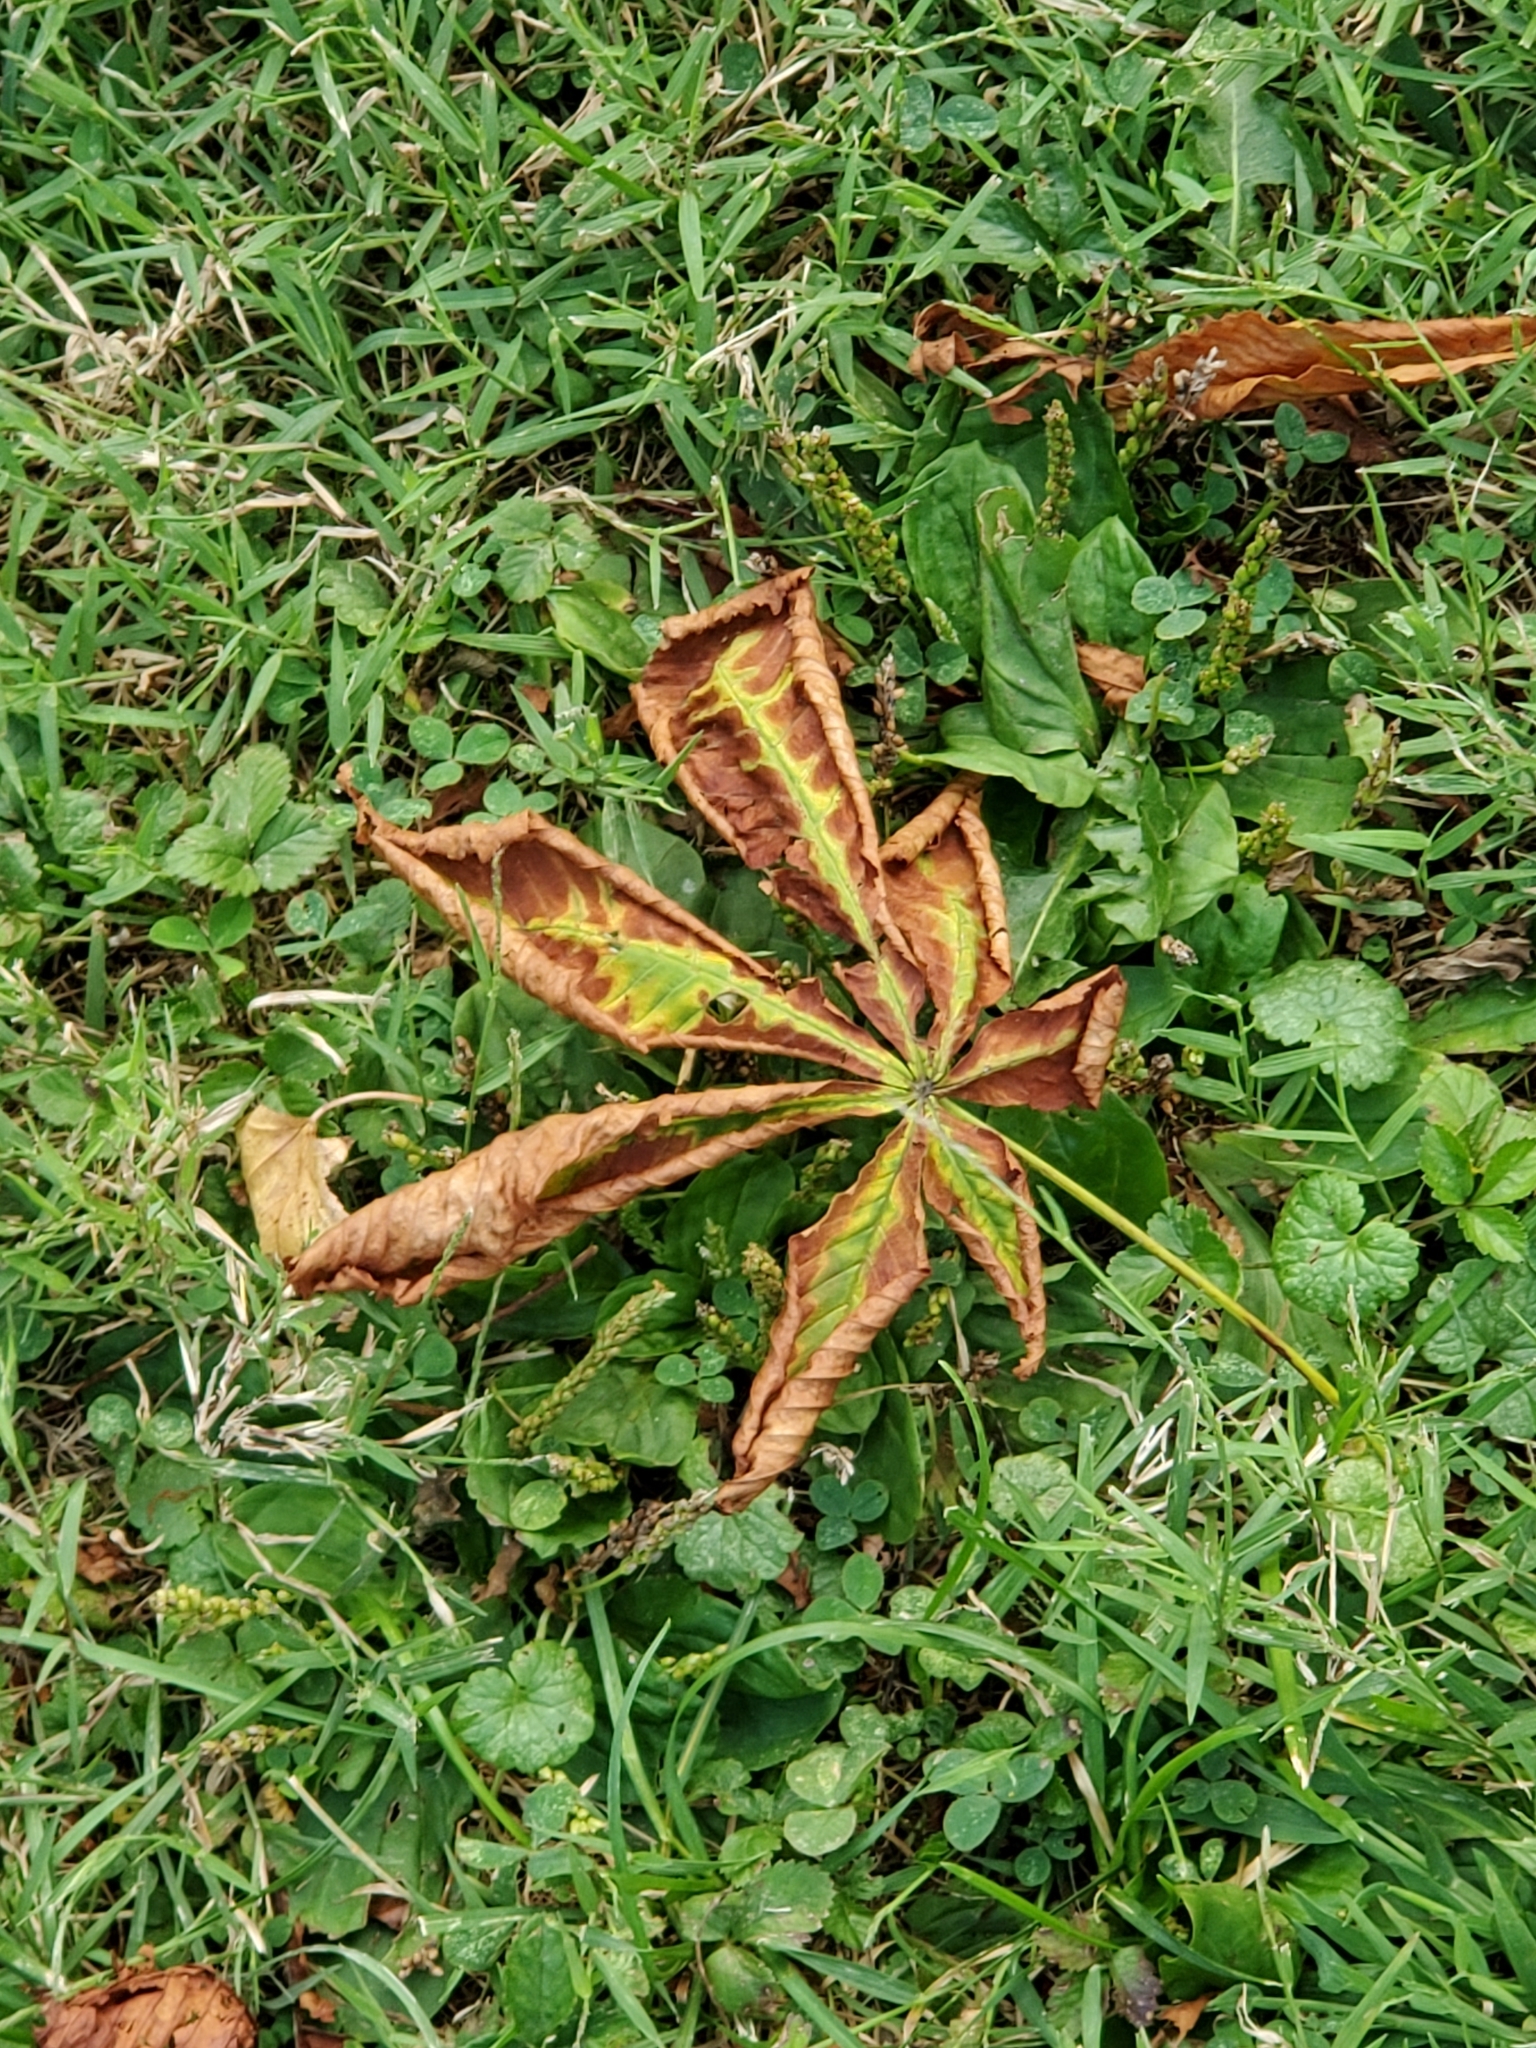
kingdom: Plantae
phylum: Tracheophyta
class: Magnoliopsida
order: Sapindales
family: Sapindaceae
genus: Aesculus
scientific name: Aesculus hippocastanum
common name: Horse-chestnut
